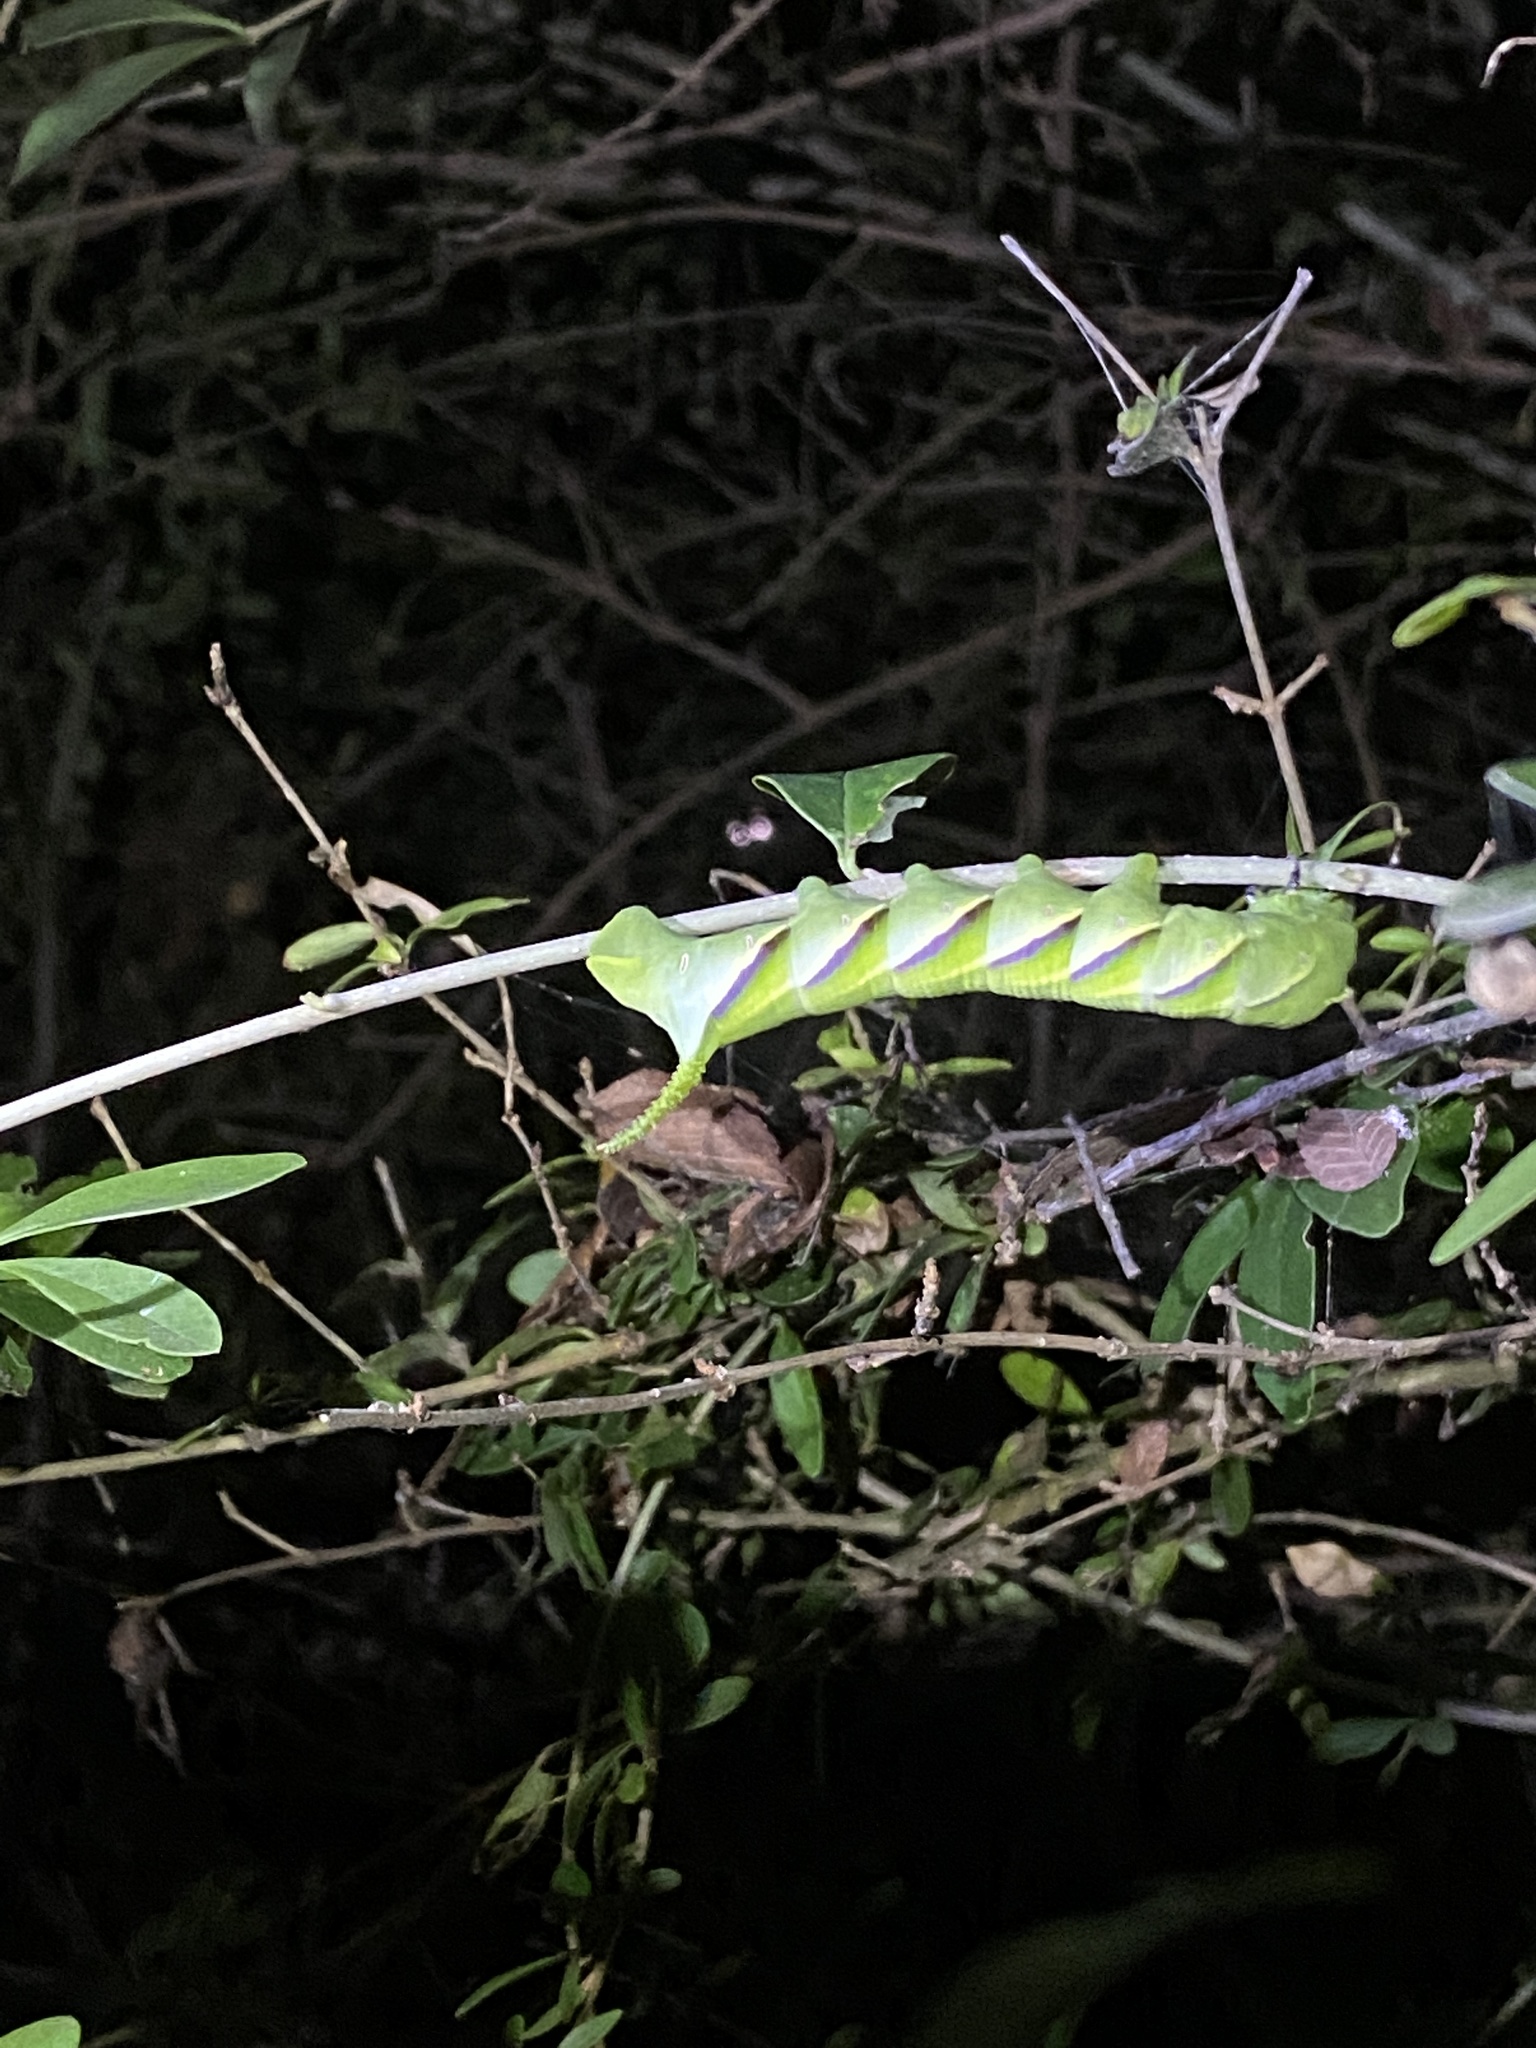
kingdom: Animalia
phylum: Arthropoda
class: Insecta
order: Lepidoptera
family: Sphingidae
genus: Manduca
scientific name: Manduca rustica
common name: Rustic sphinx
